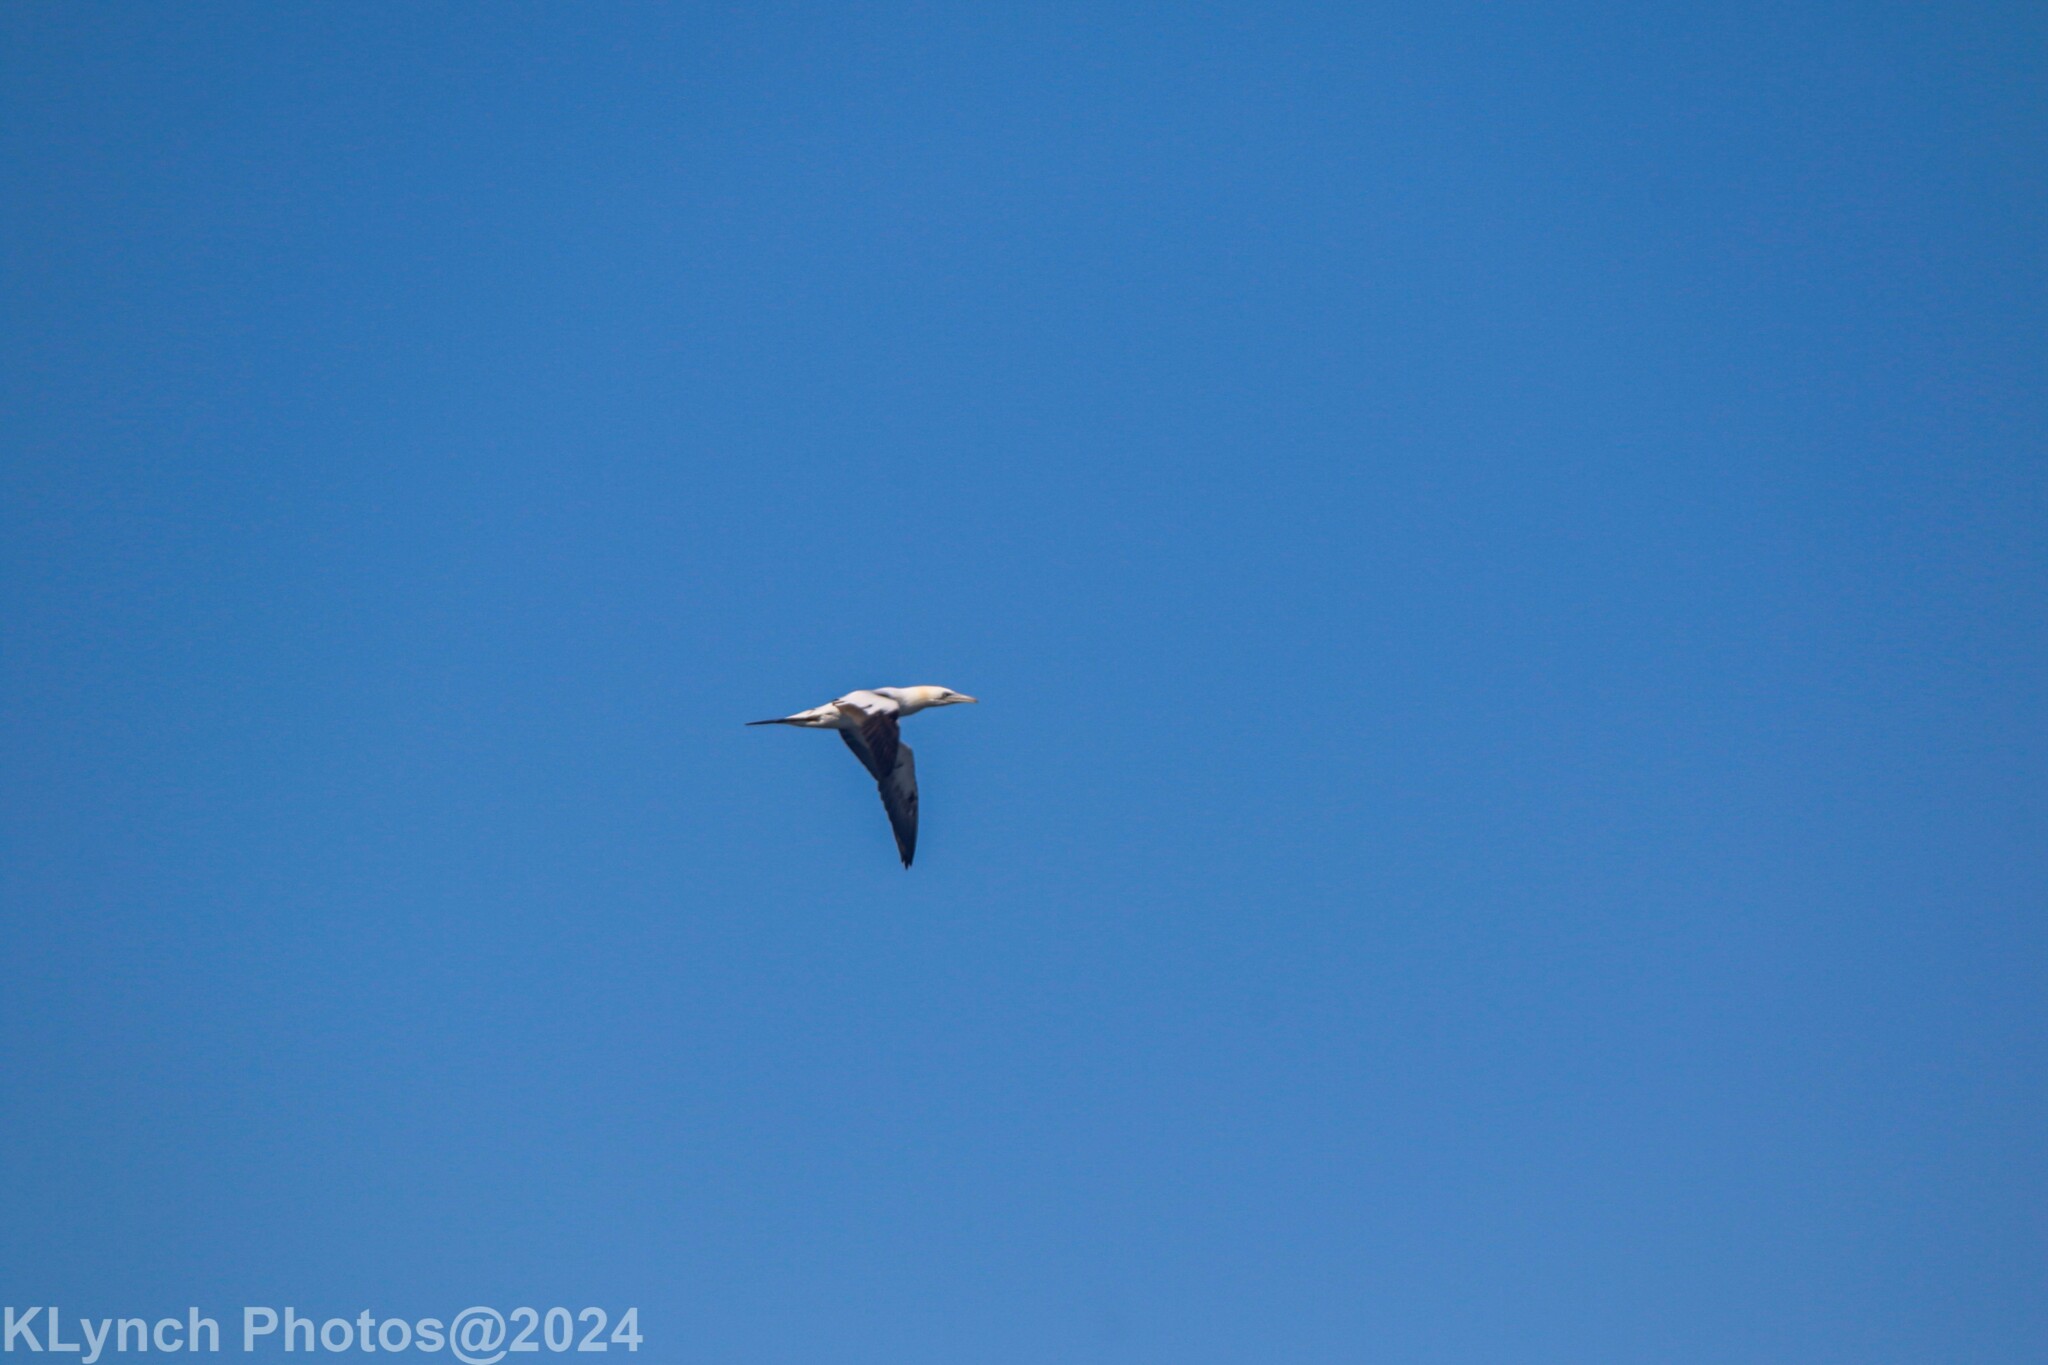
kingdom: Animalia
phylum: Chordata
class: Aves
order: Suliformes
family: Sulidae
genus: Morus
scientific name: Morus bassanus
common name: Northern gannet
